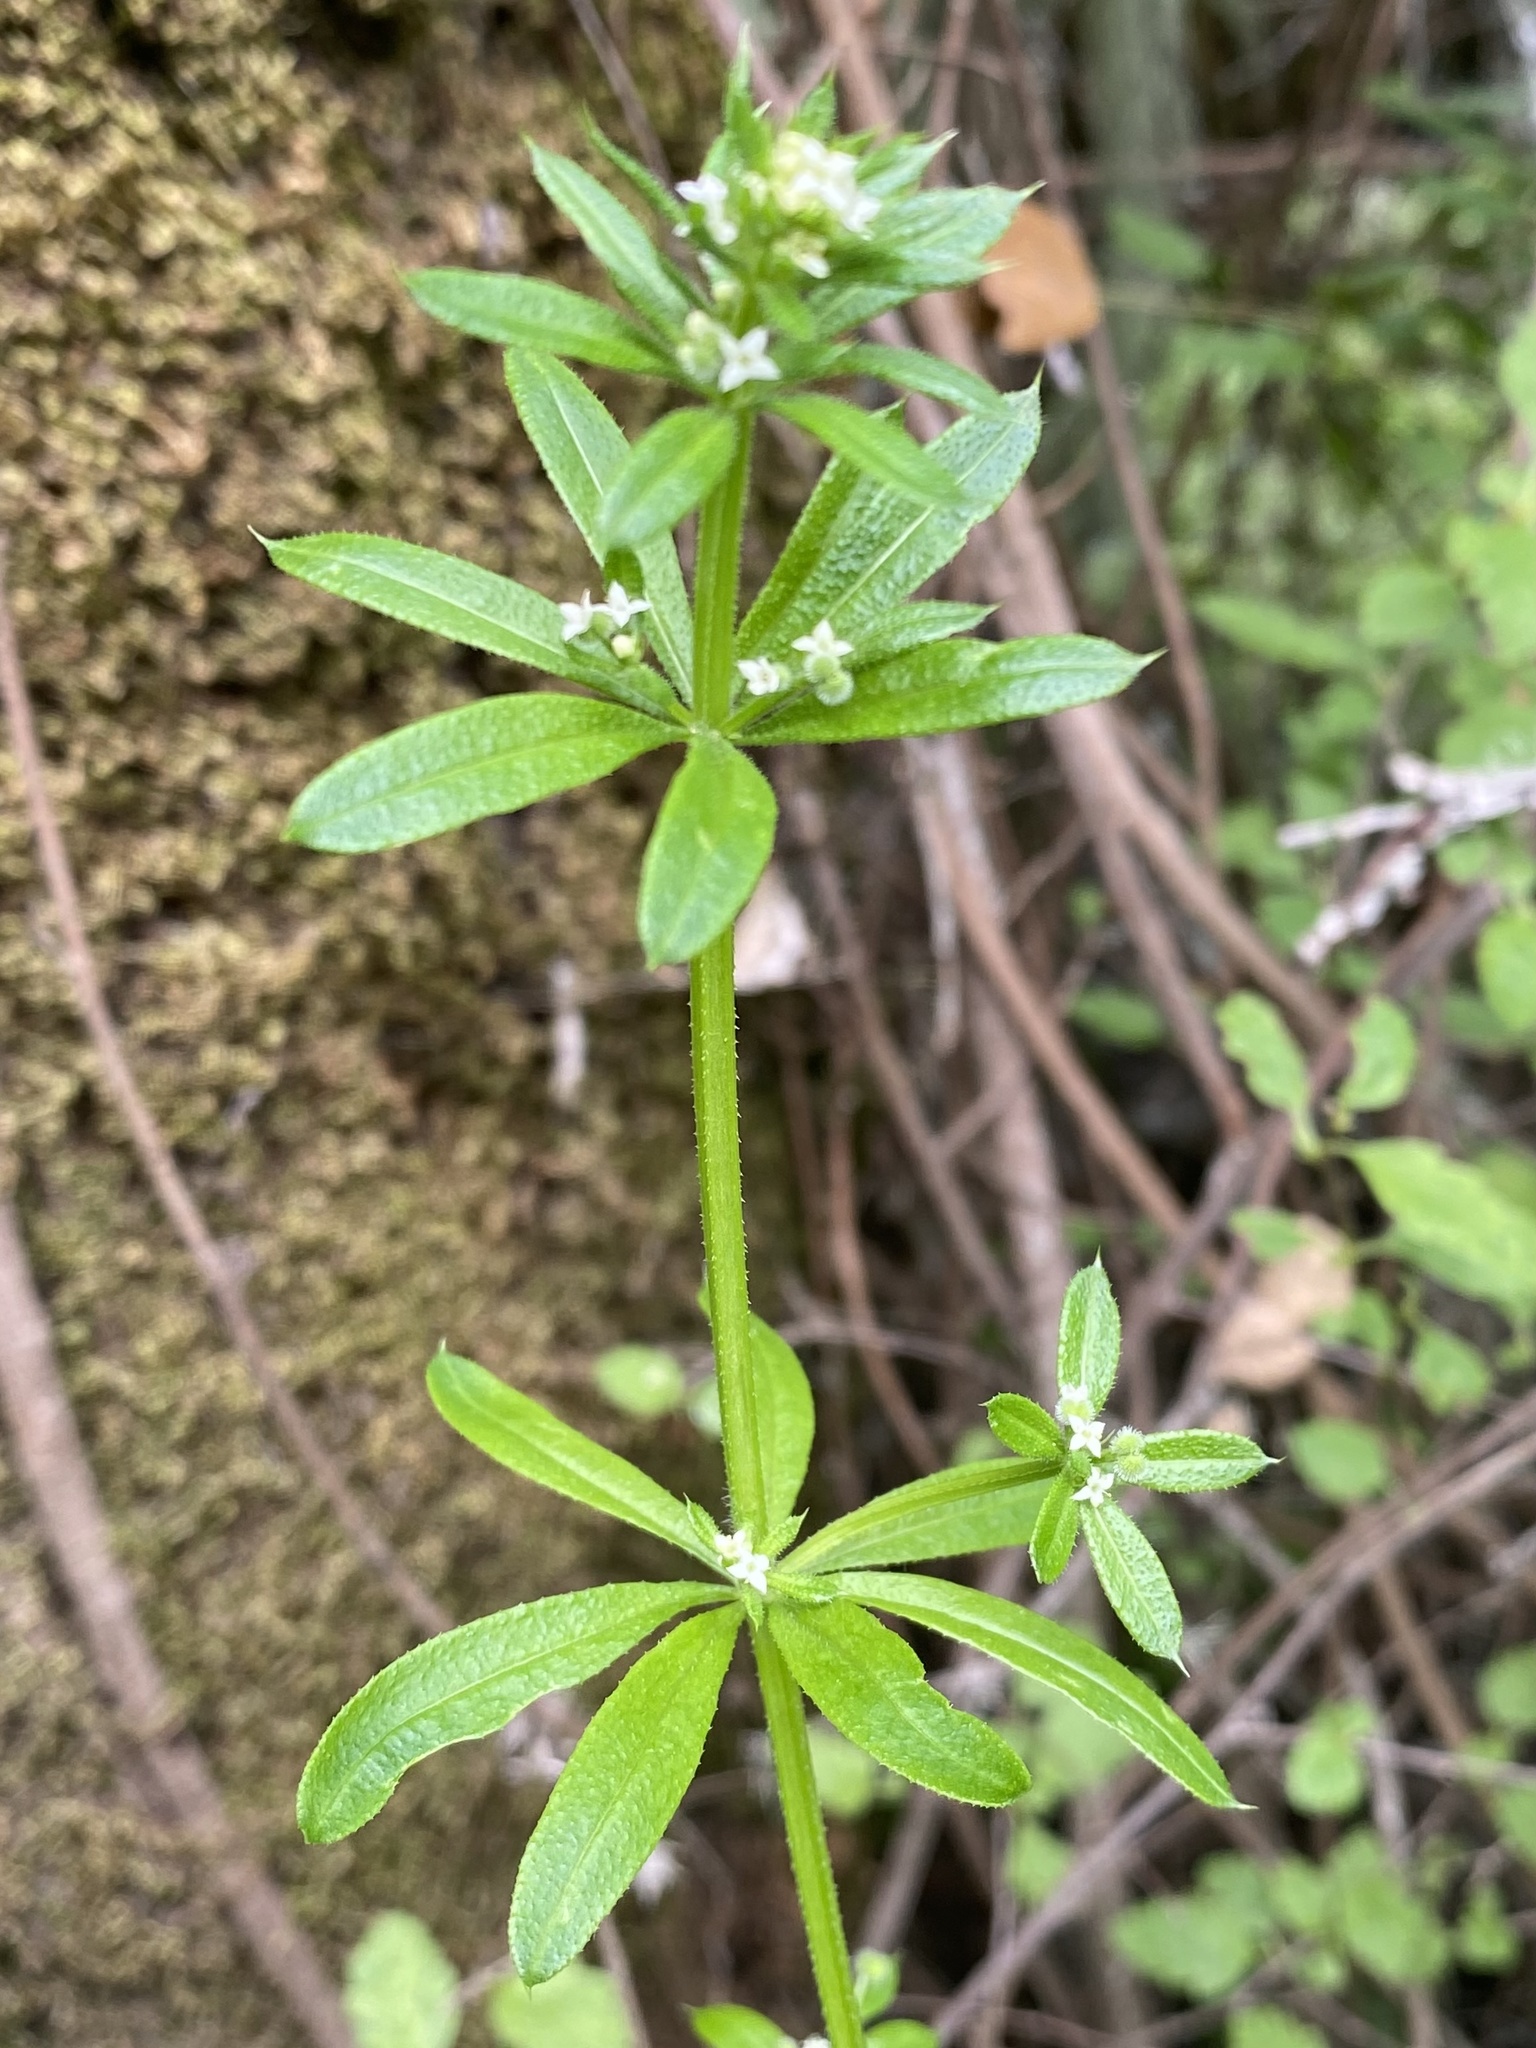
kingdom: Plantae
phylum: Tracheophyta
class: Magnoliopsida
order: Gentianales
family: Rubiaceae
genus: Galium
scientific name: Galium aparine
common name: Cleavers
